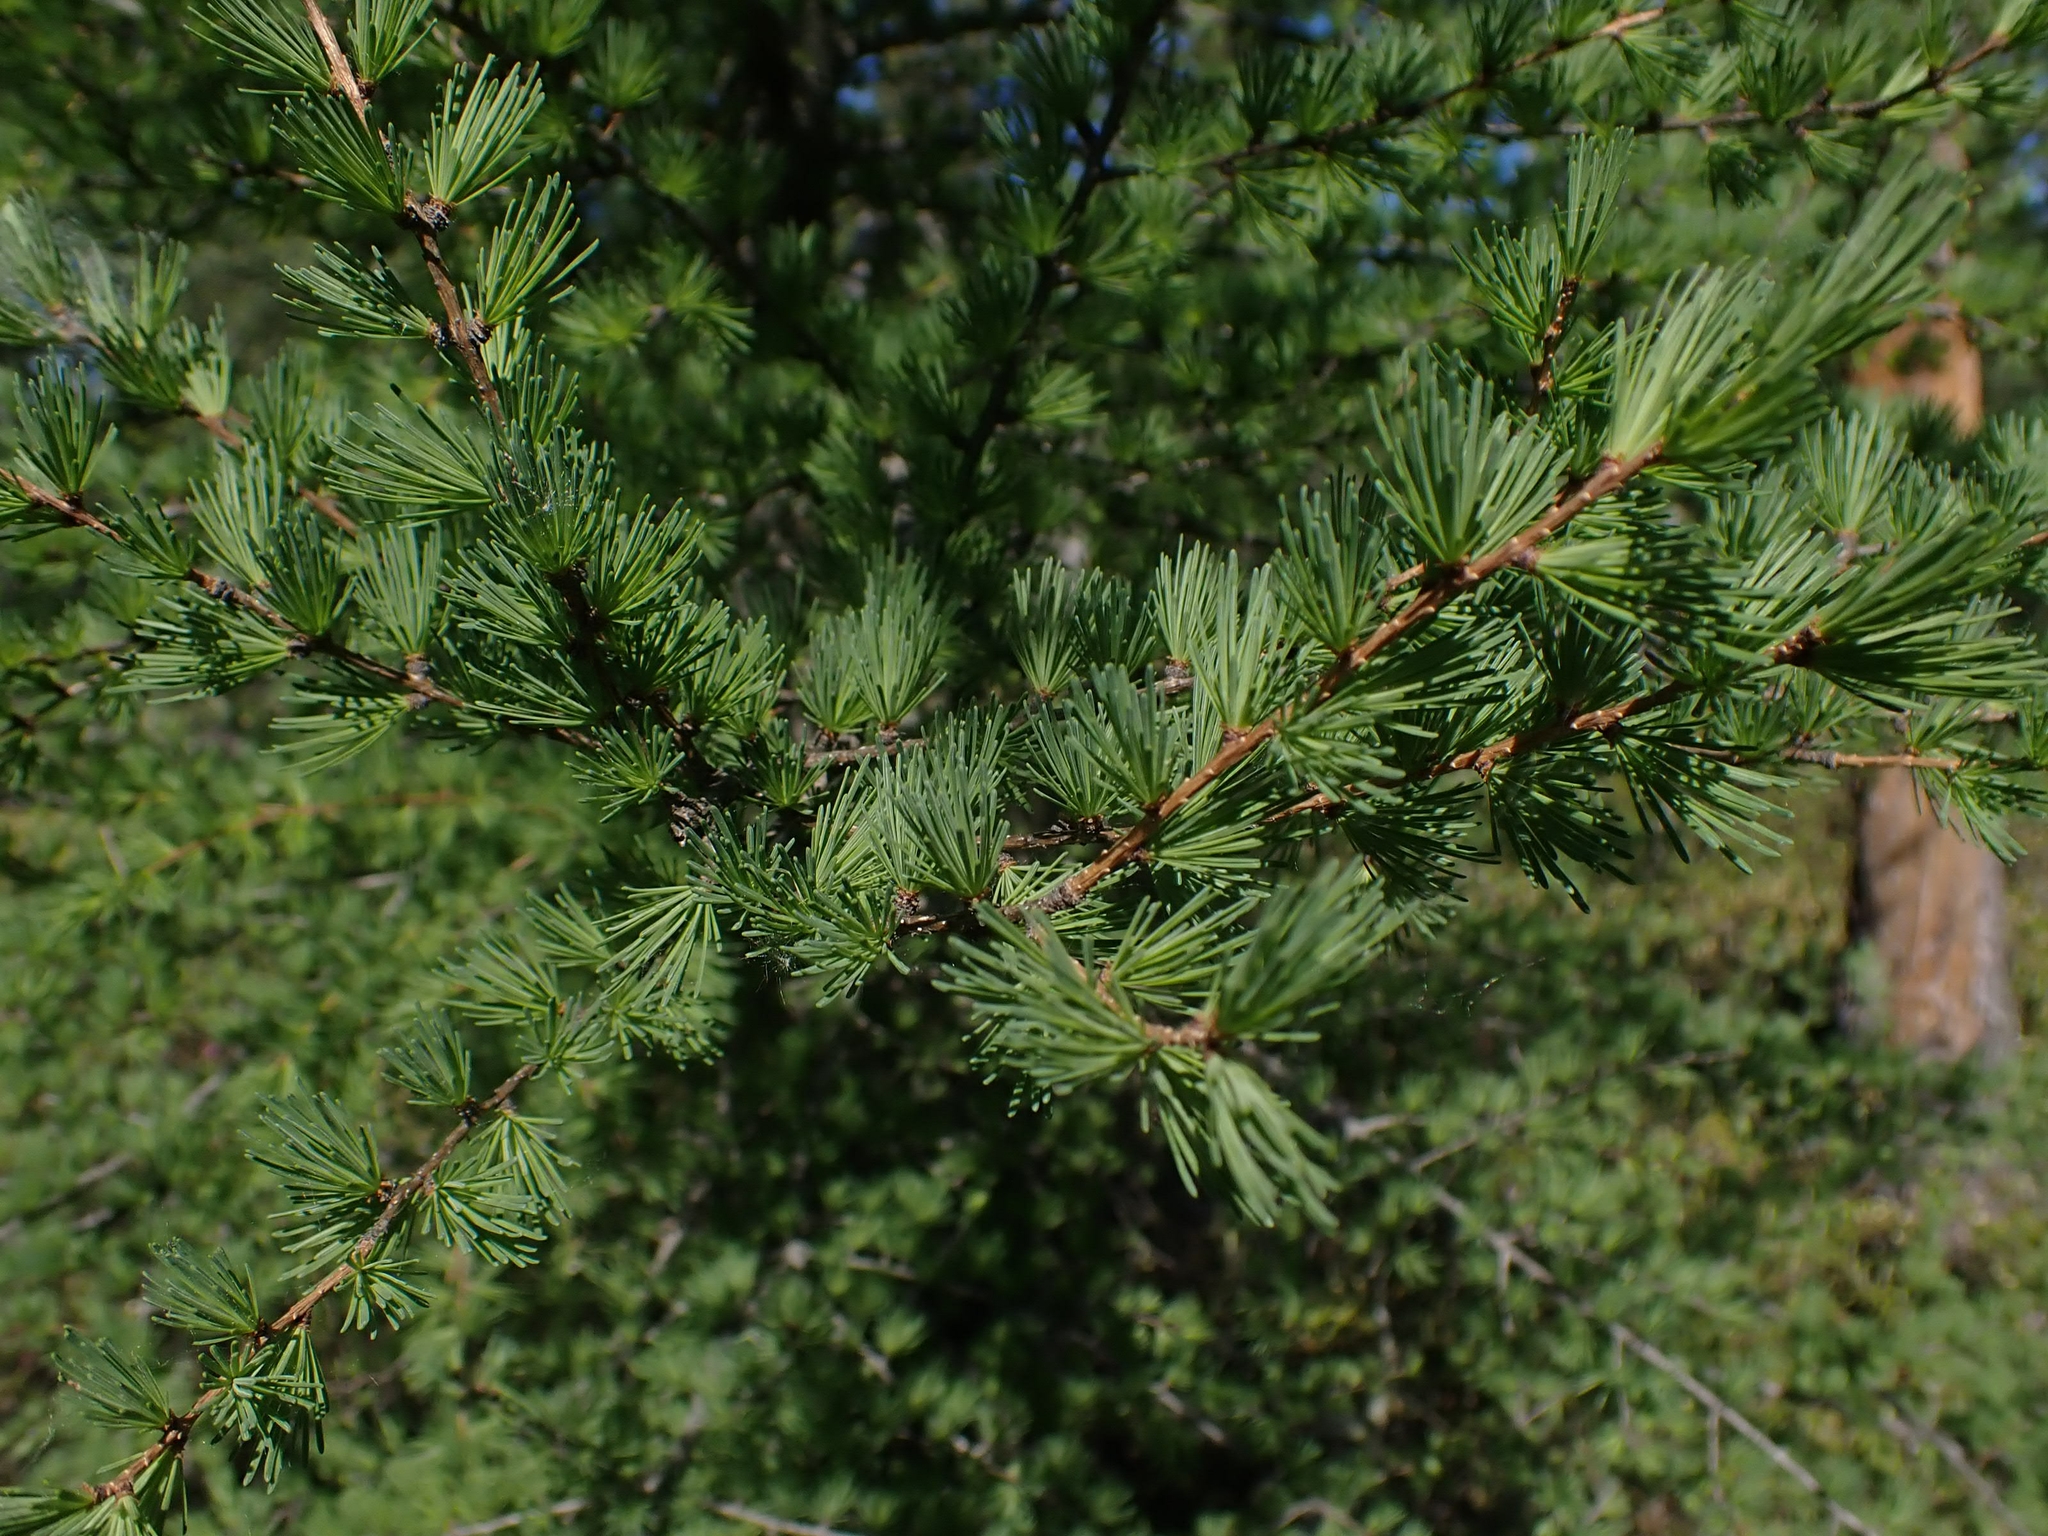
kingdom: Plantae
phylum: Tracheophyta
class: Pinopsida
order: Pinales
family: Pinaceae
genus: Larix
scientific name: Larix laricina
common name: American larch
